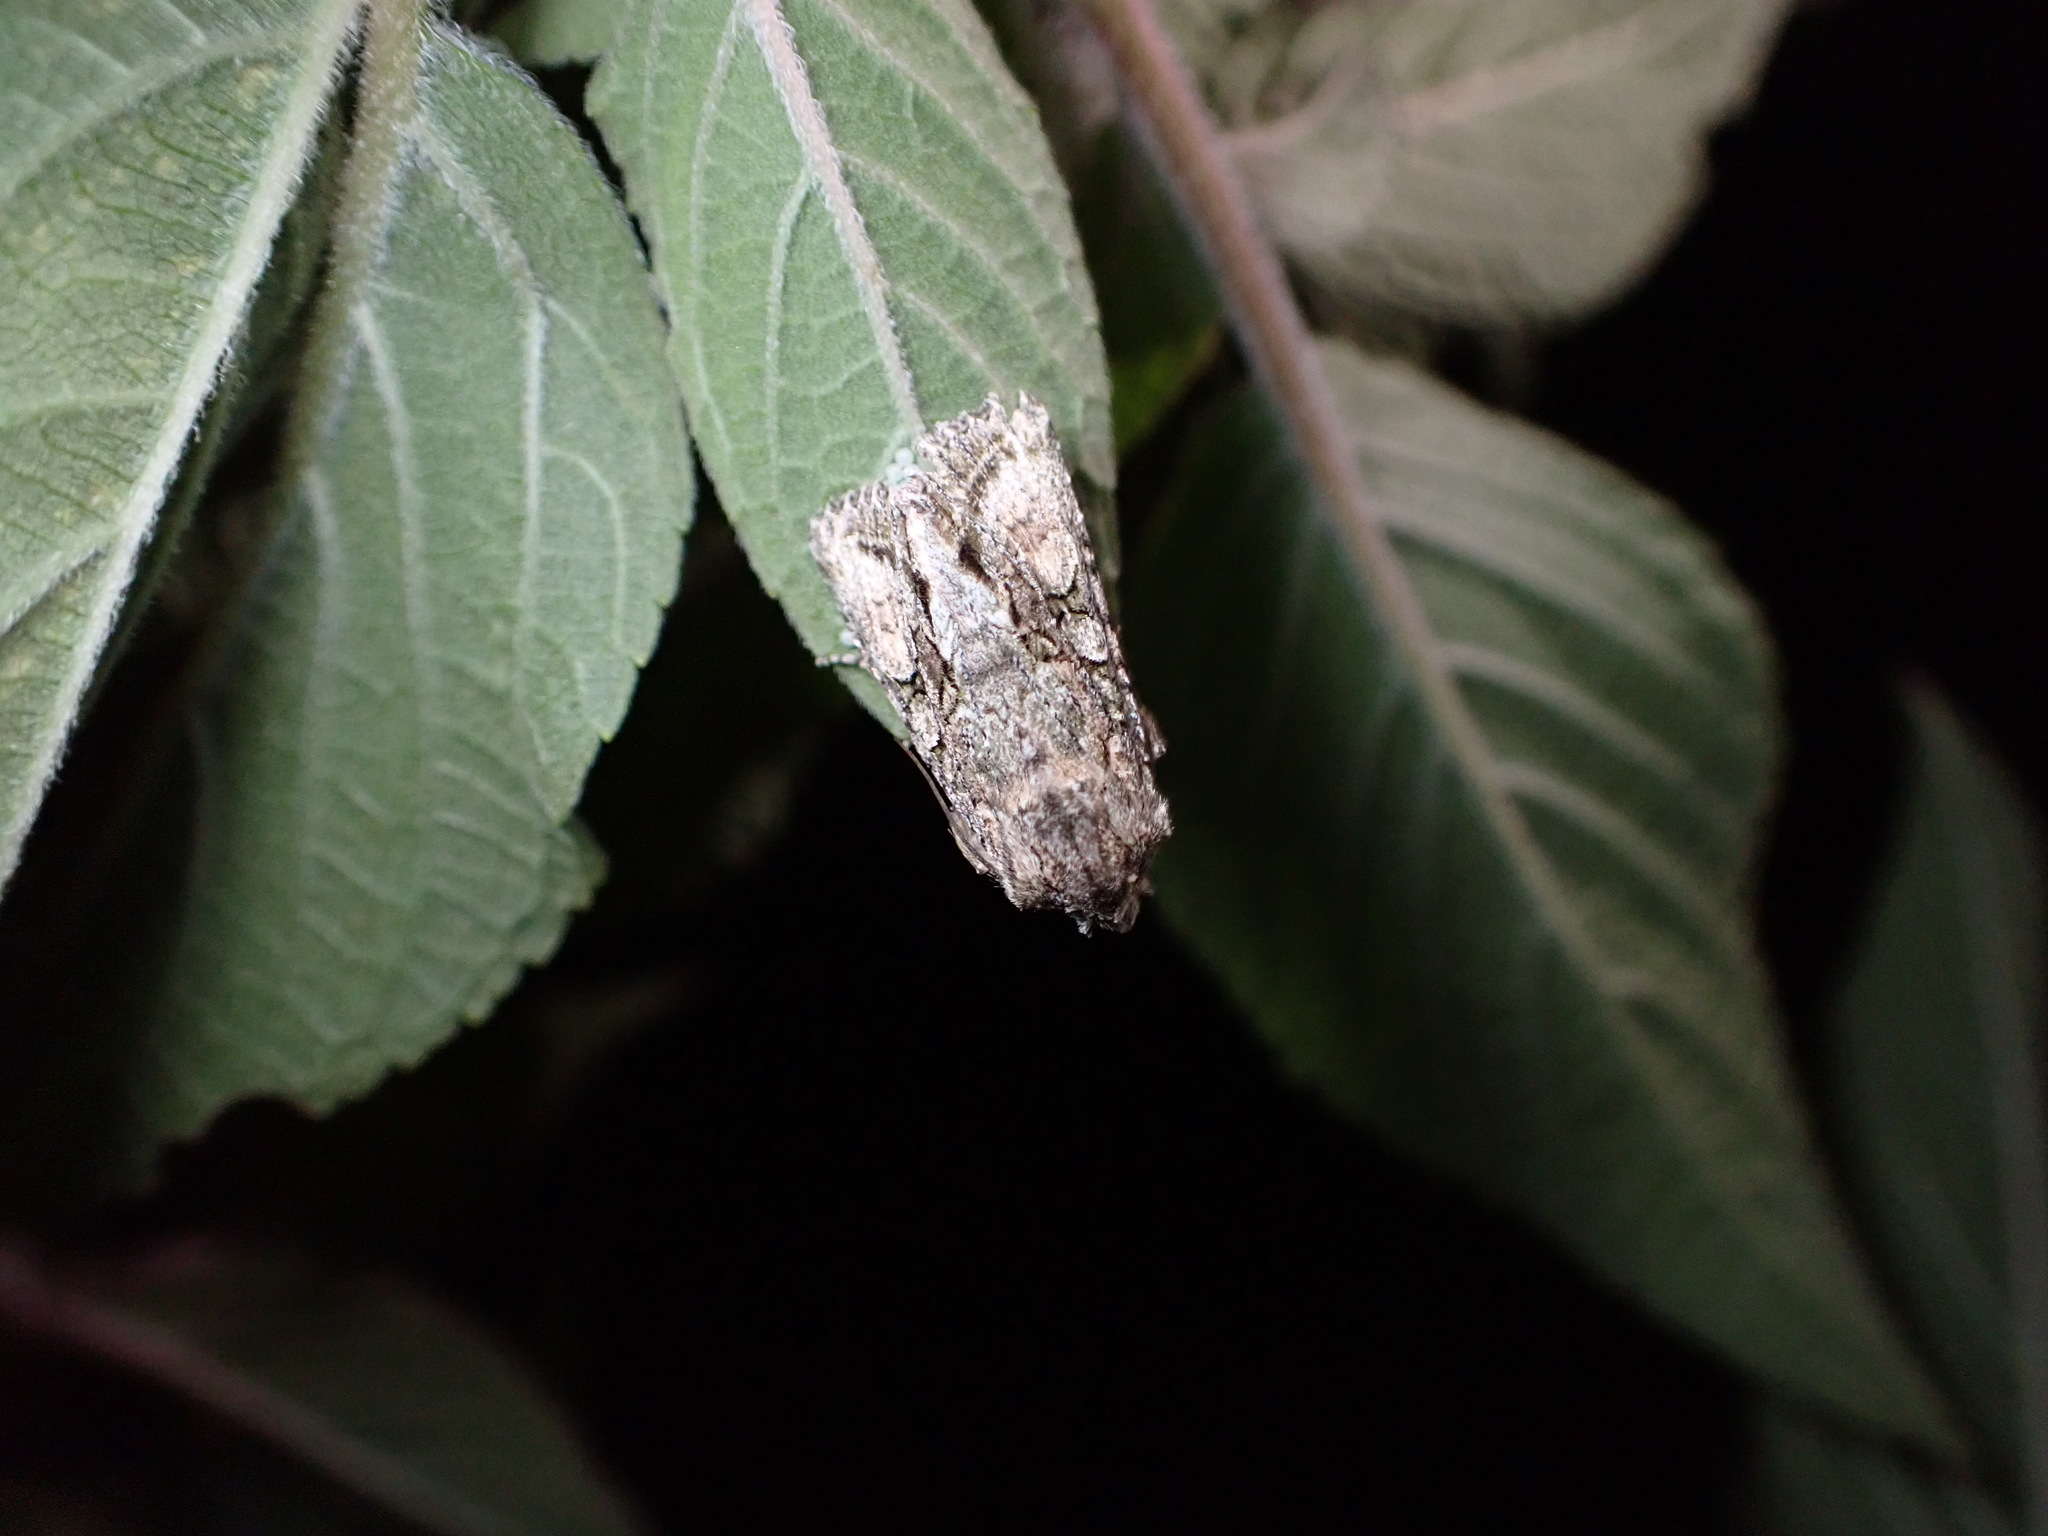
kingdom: Animalia
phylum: Arthropoda
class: Insecta
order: Lepidoptera
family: Noctuidae
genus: Ichneutica
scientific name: Ichneutica mutans
